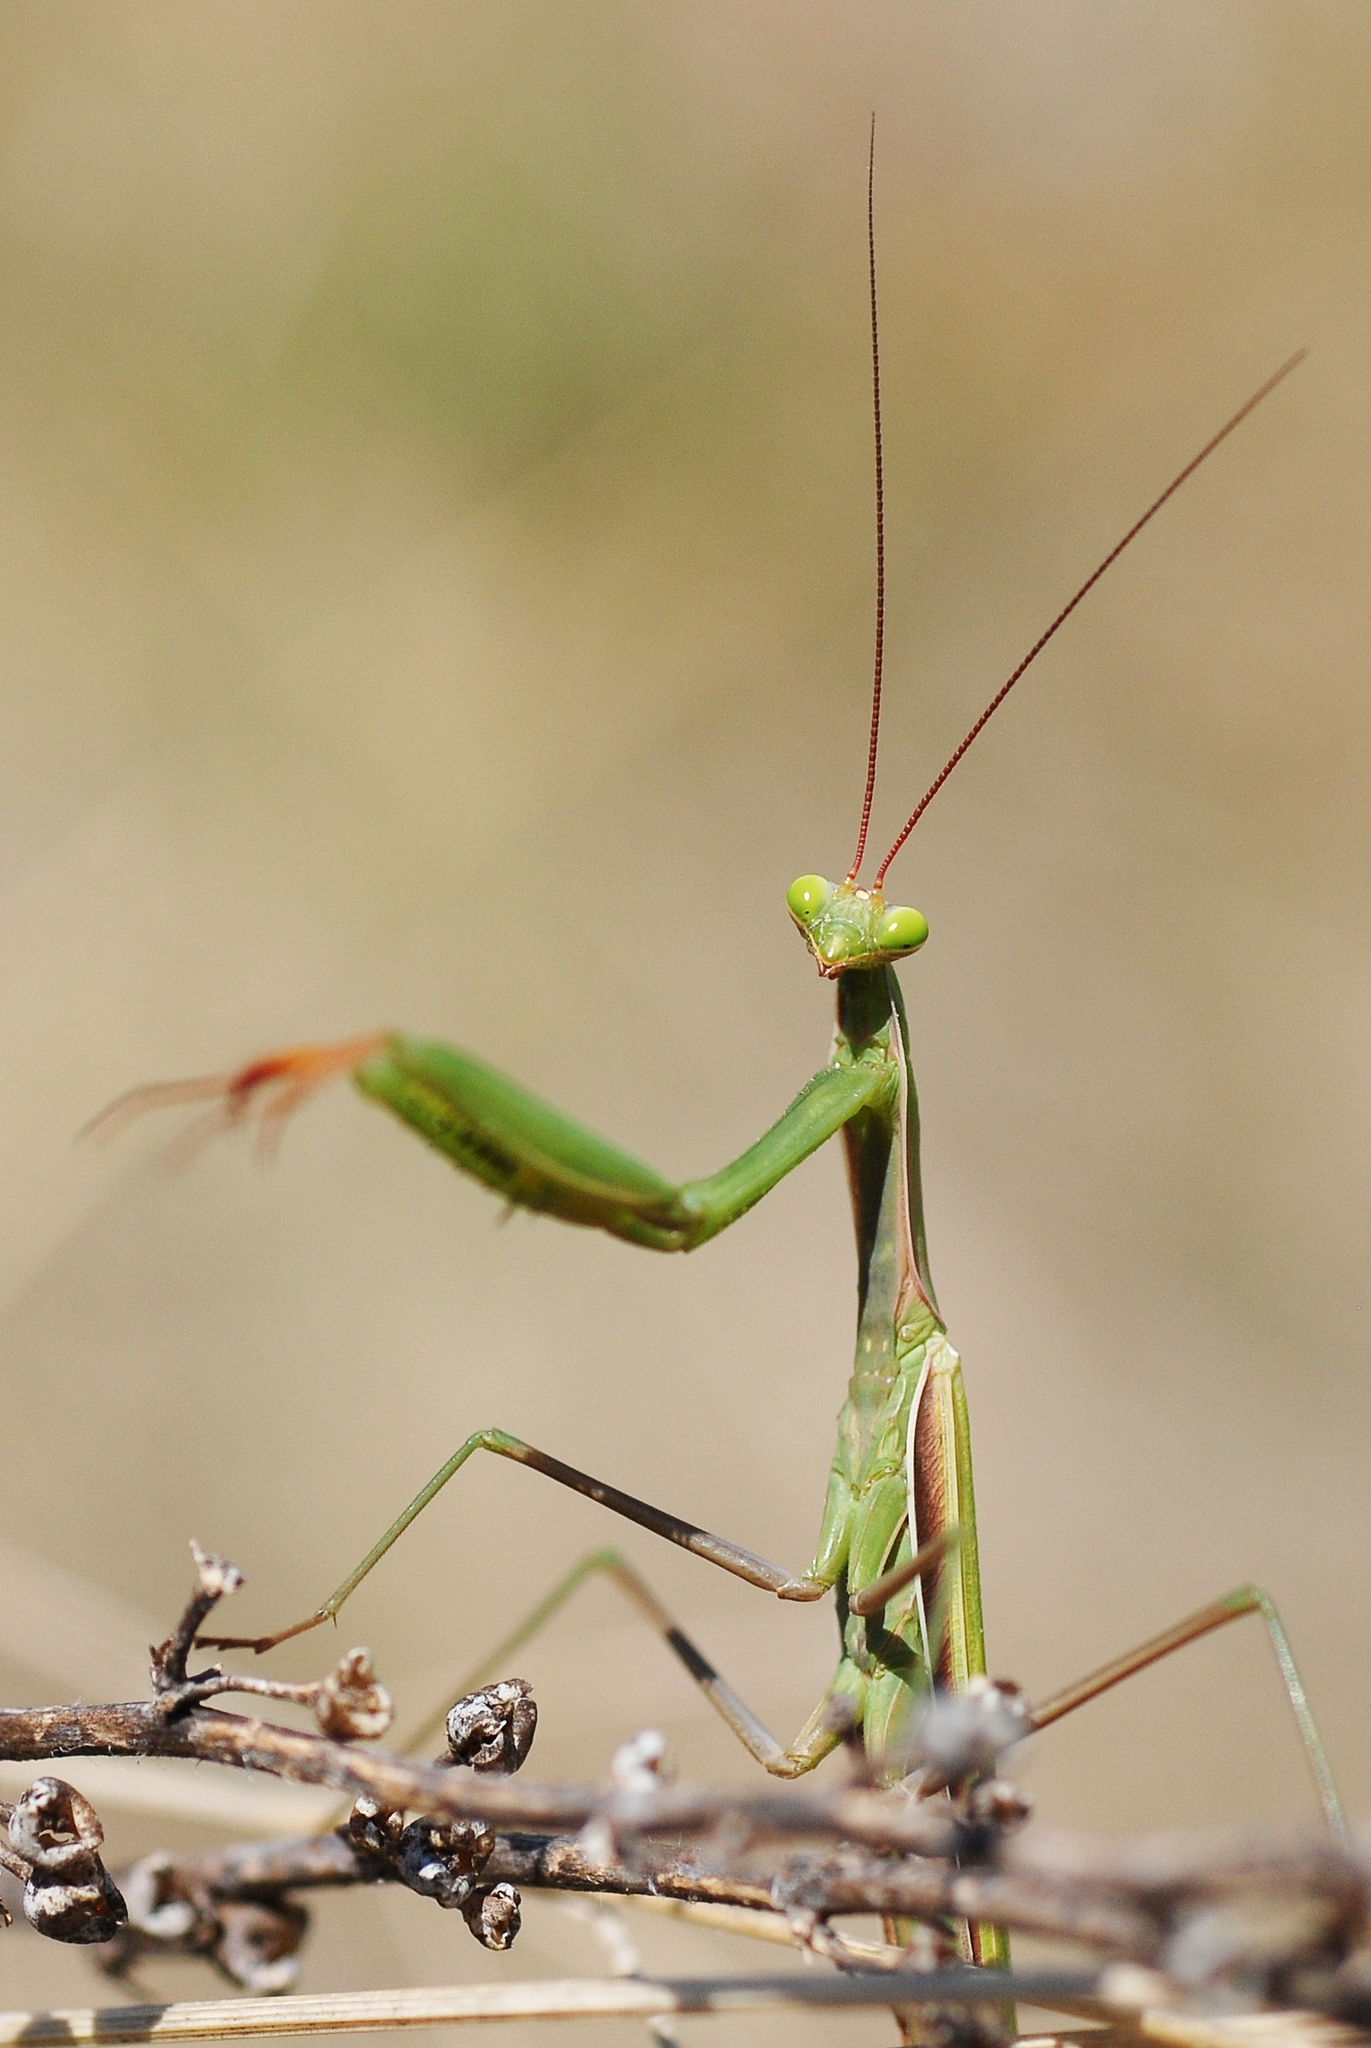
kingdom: Animalia
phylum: Arthropoda
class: Insecta
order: Mantodea
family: Mantidae
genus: Mantis
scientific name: Mantis religiosa
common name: Praying mantis
